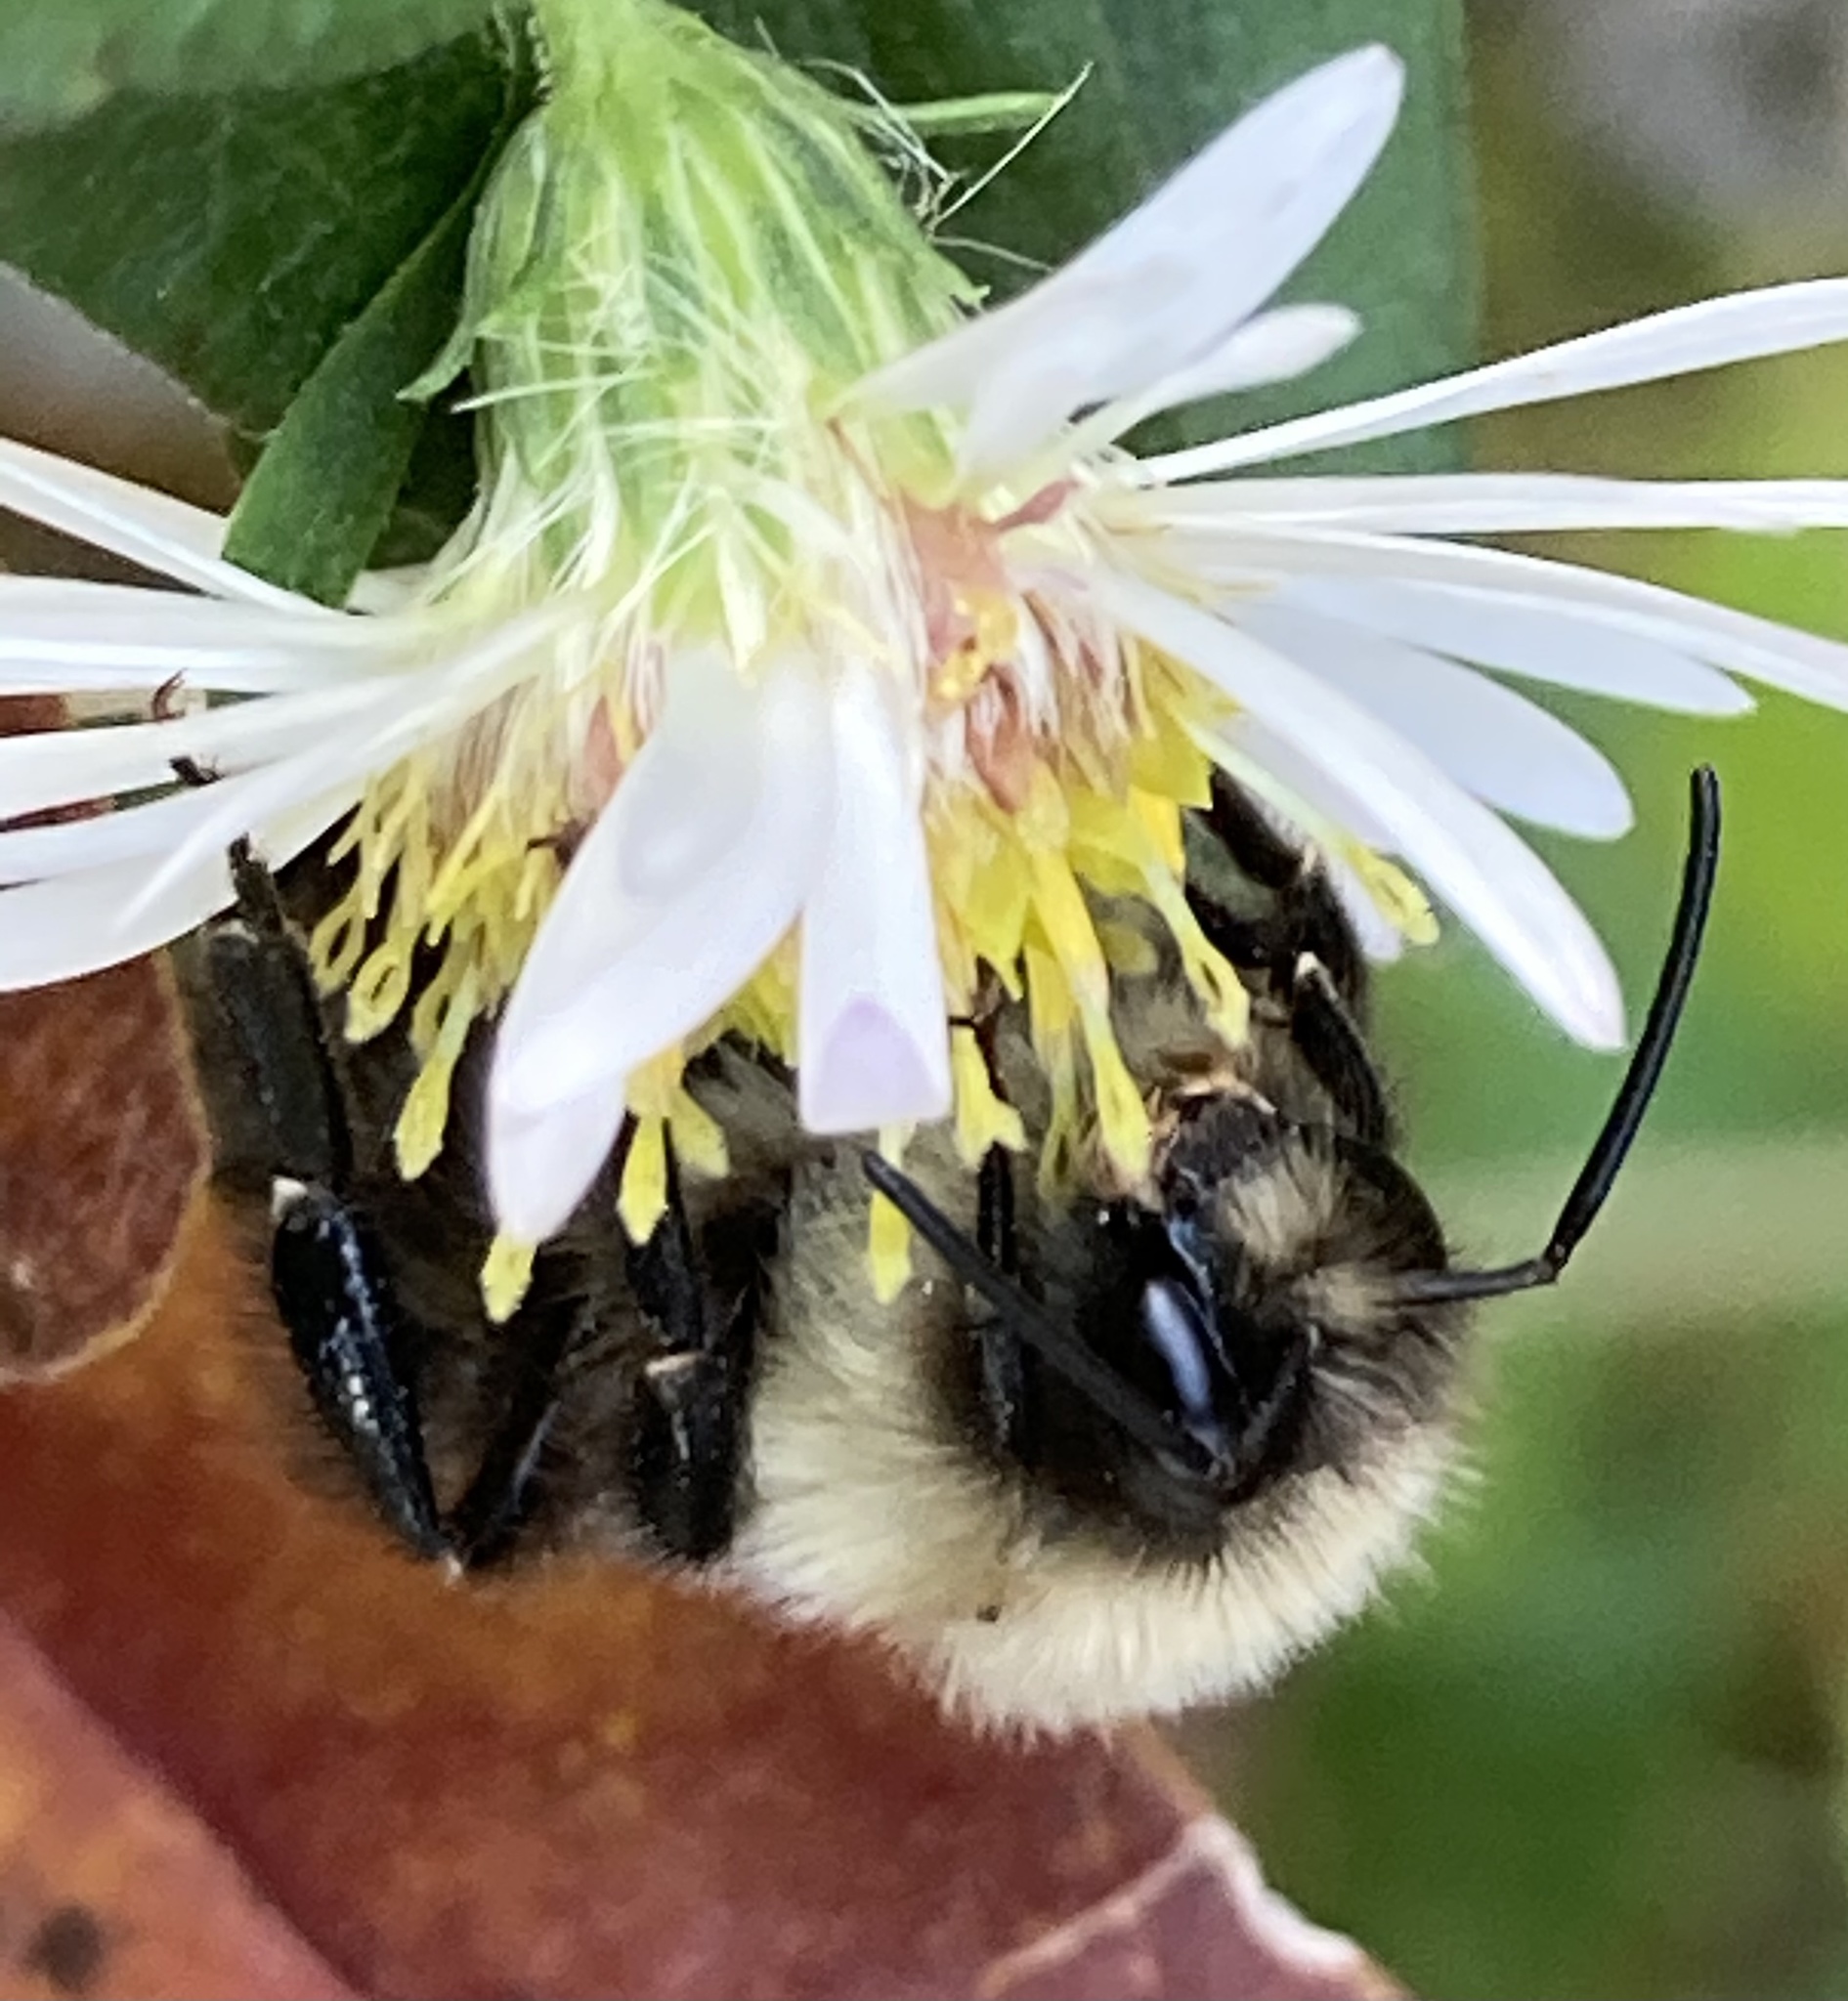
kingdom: Animalia
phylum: Arthropoda
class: Insecta
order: Hymenoptera
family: Apidae
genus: Bombus
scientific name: Bombus impatiens
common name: Common eastern bumble bee
